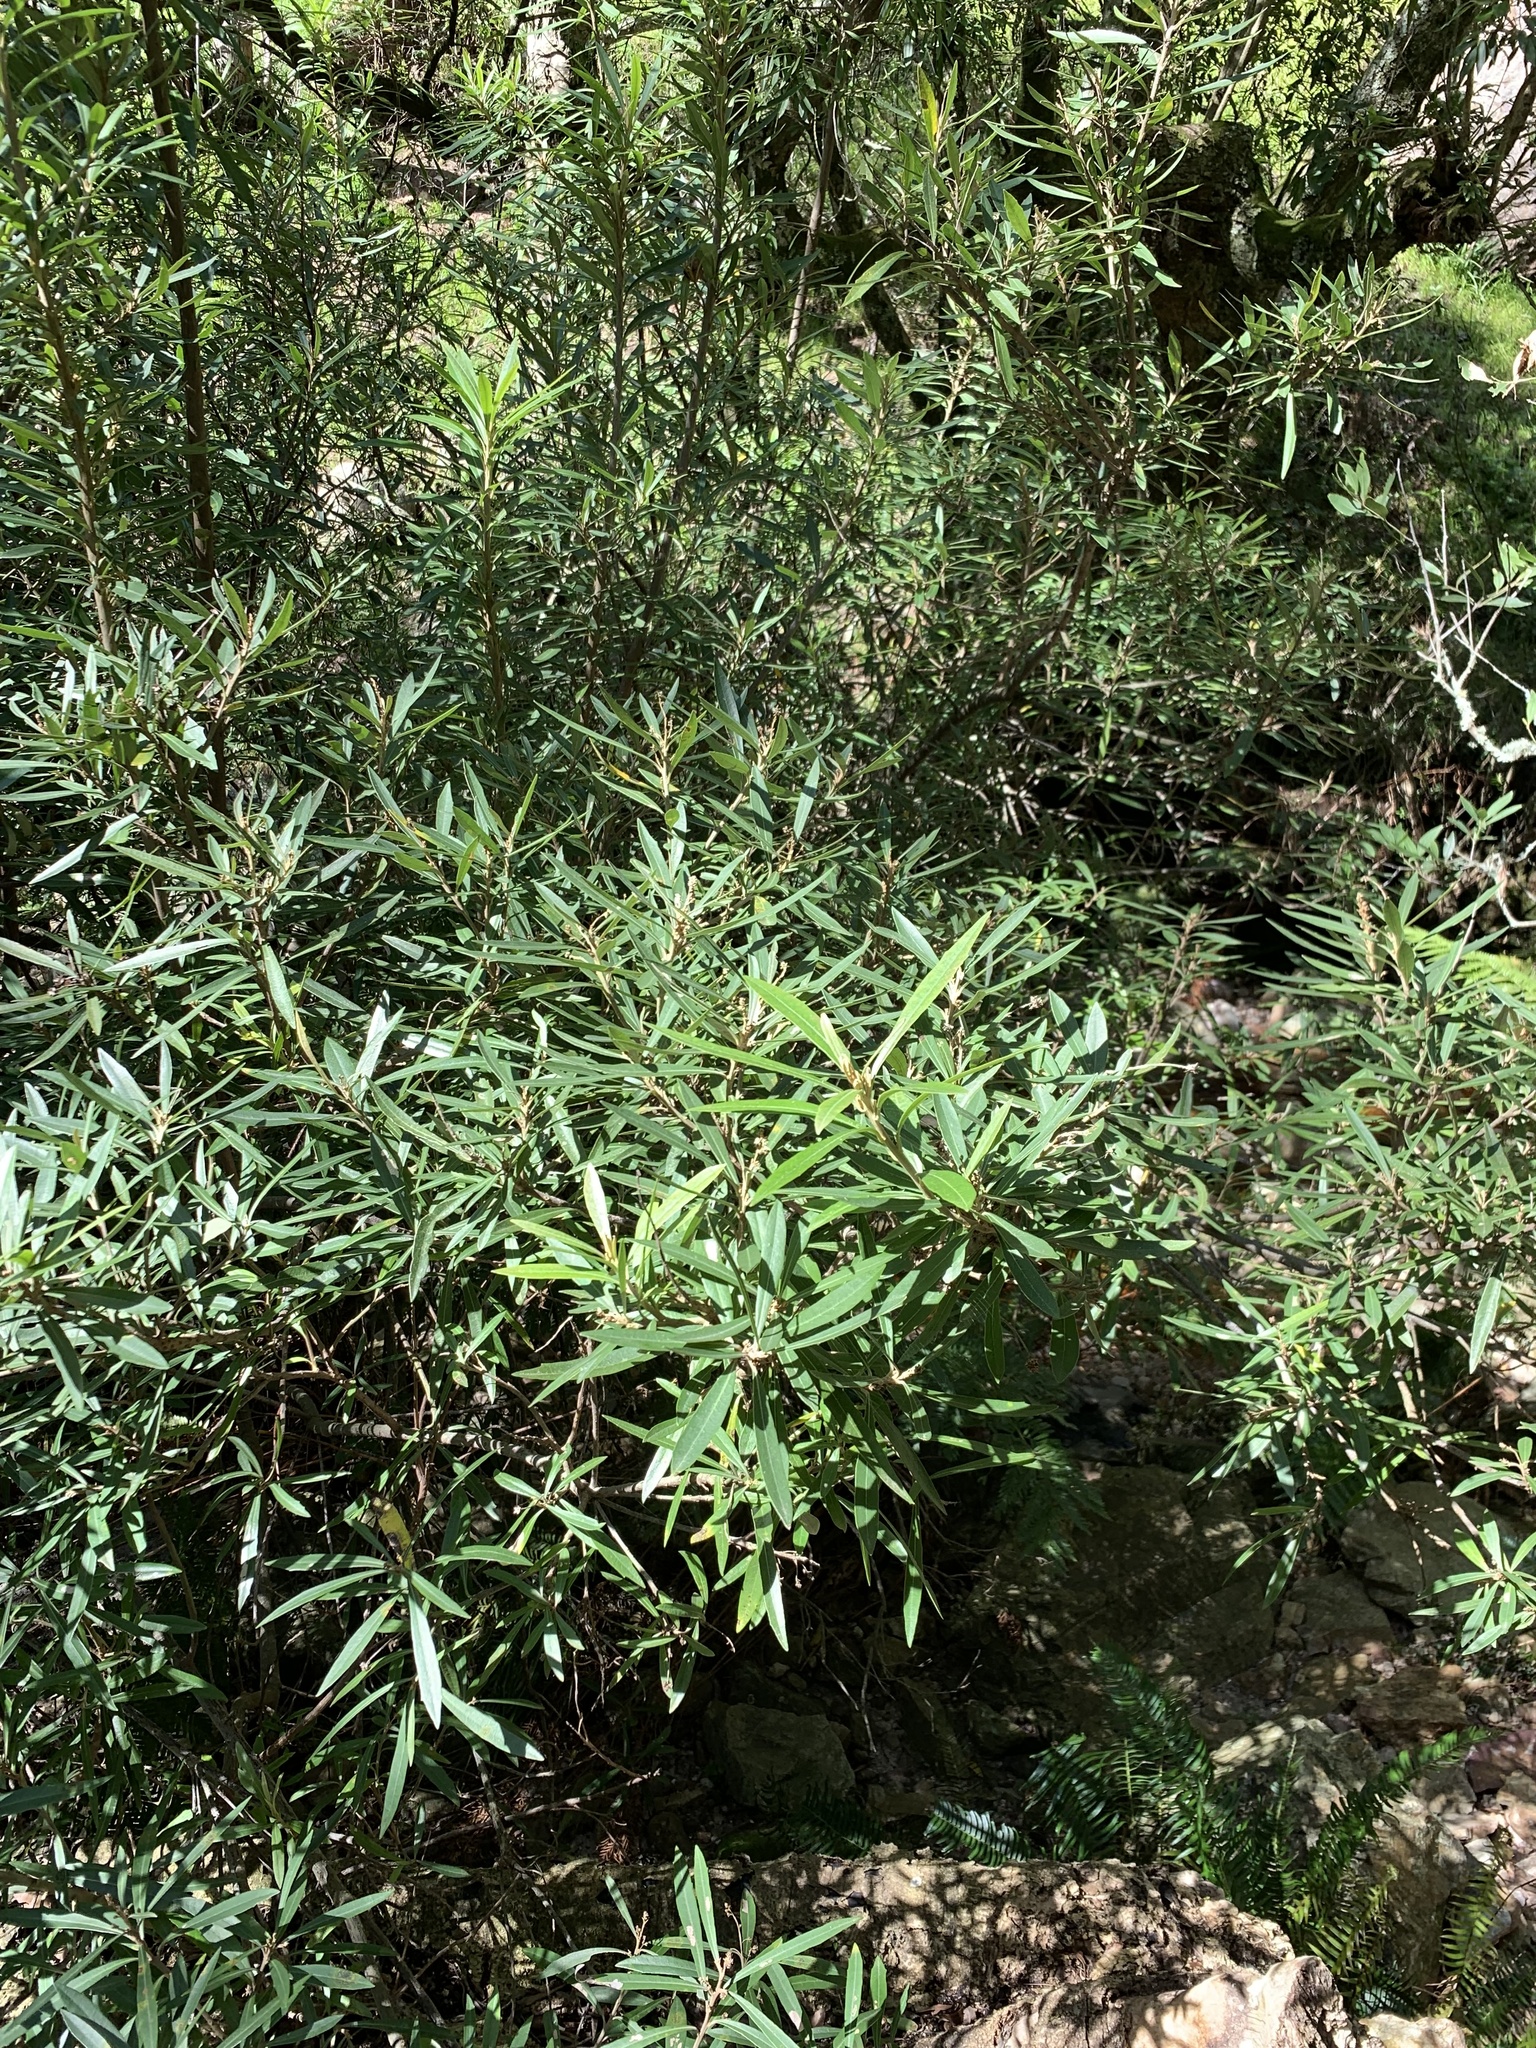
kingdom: Plantae
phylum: Tracheophyta
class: Magnoliopsida
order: Asterales
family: Asteraceae
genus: Brachylaena
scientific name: Brachylaena neriifolia
